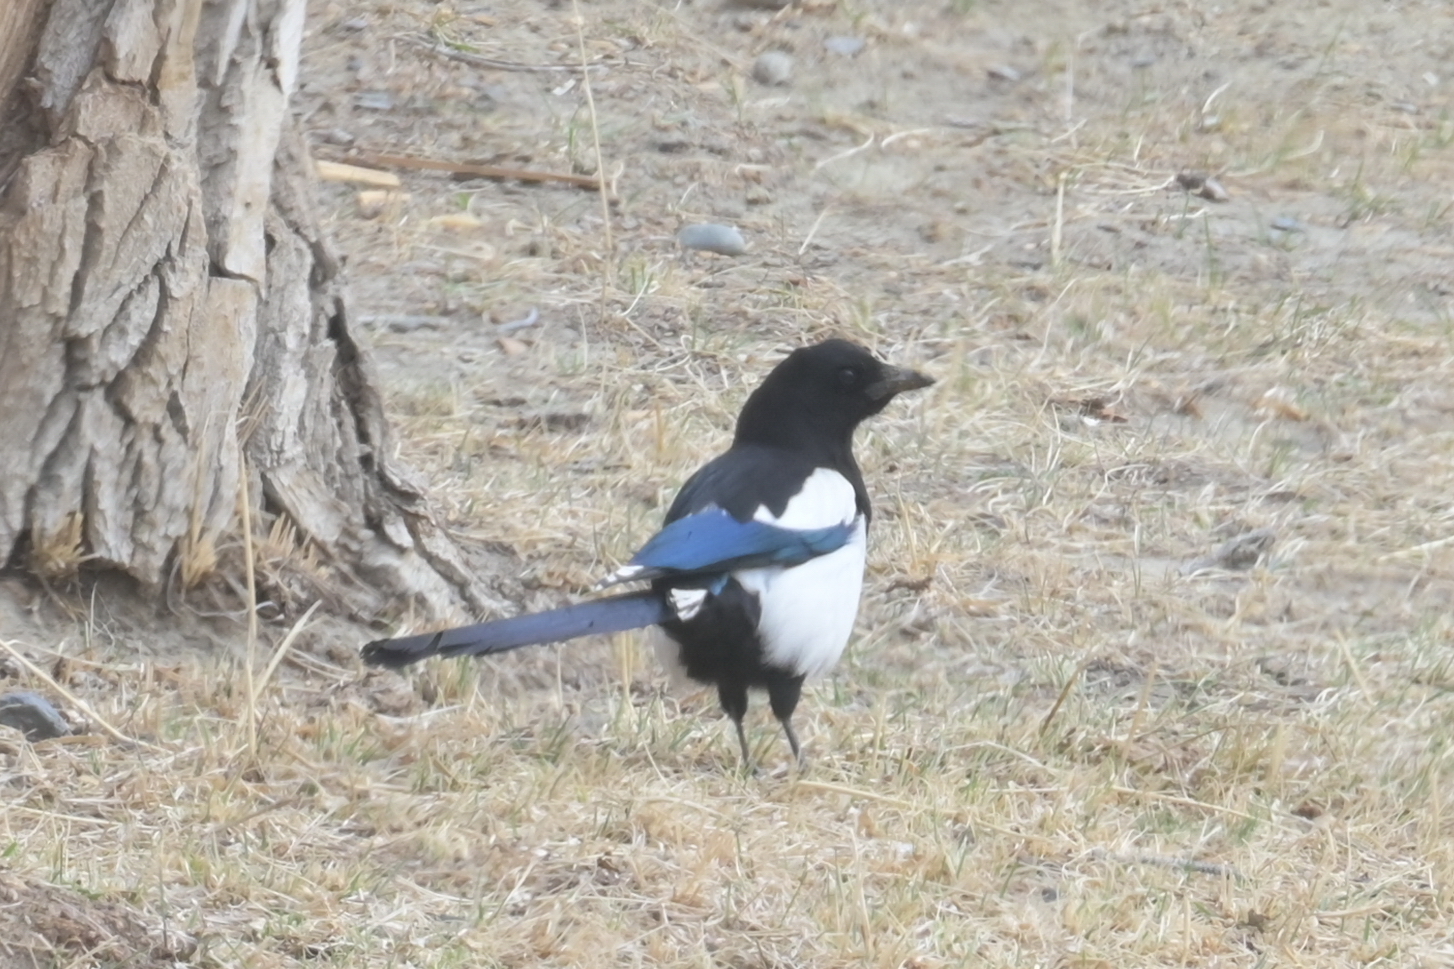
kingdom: Animalia
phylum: Chordata
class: Aves
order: Passeriformes
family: Corvidae
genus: Pica
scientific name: Pica pica
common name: Eurasian magpie
